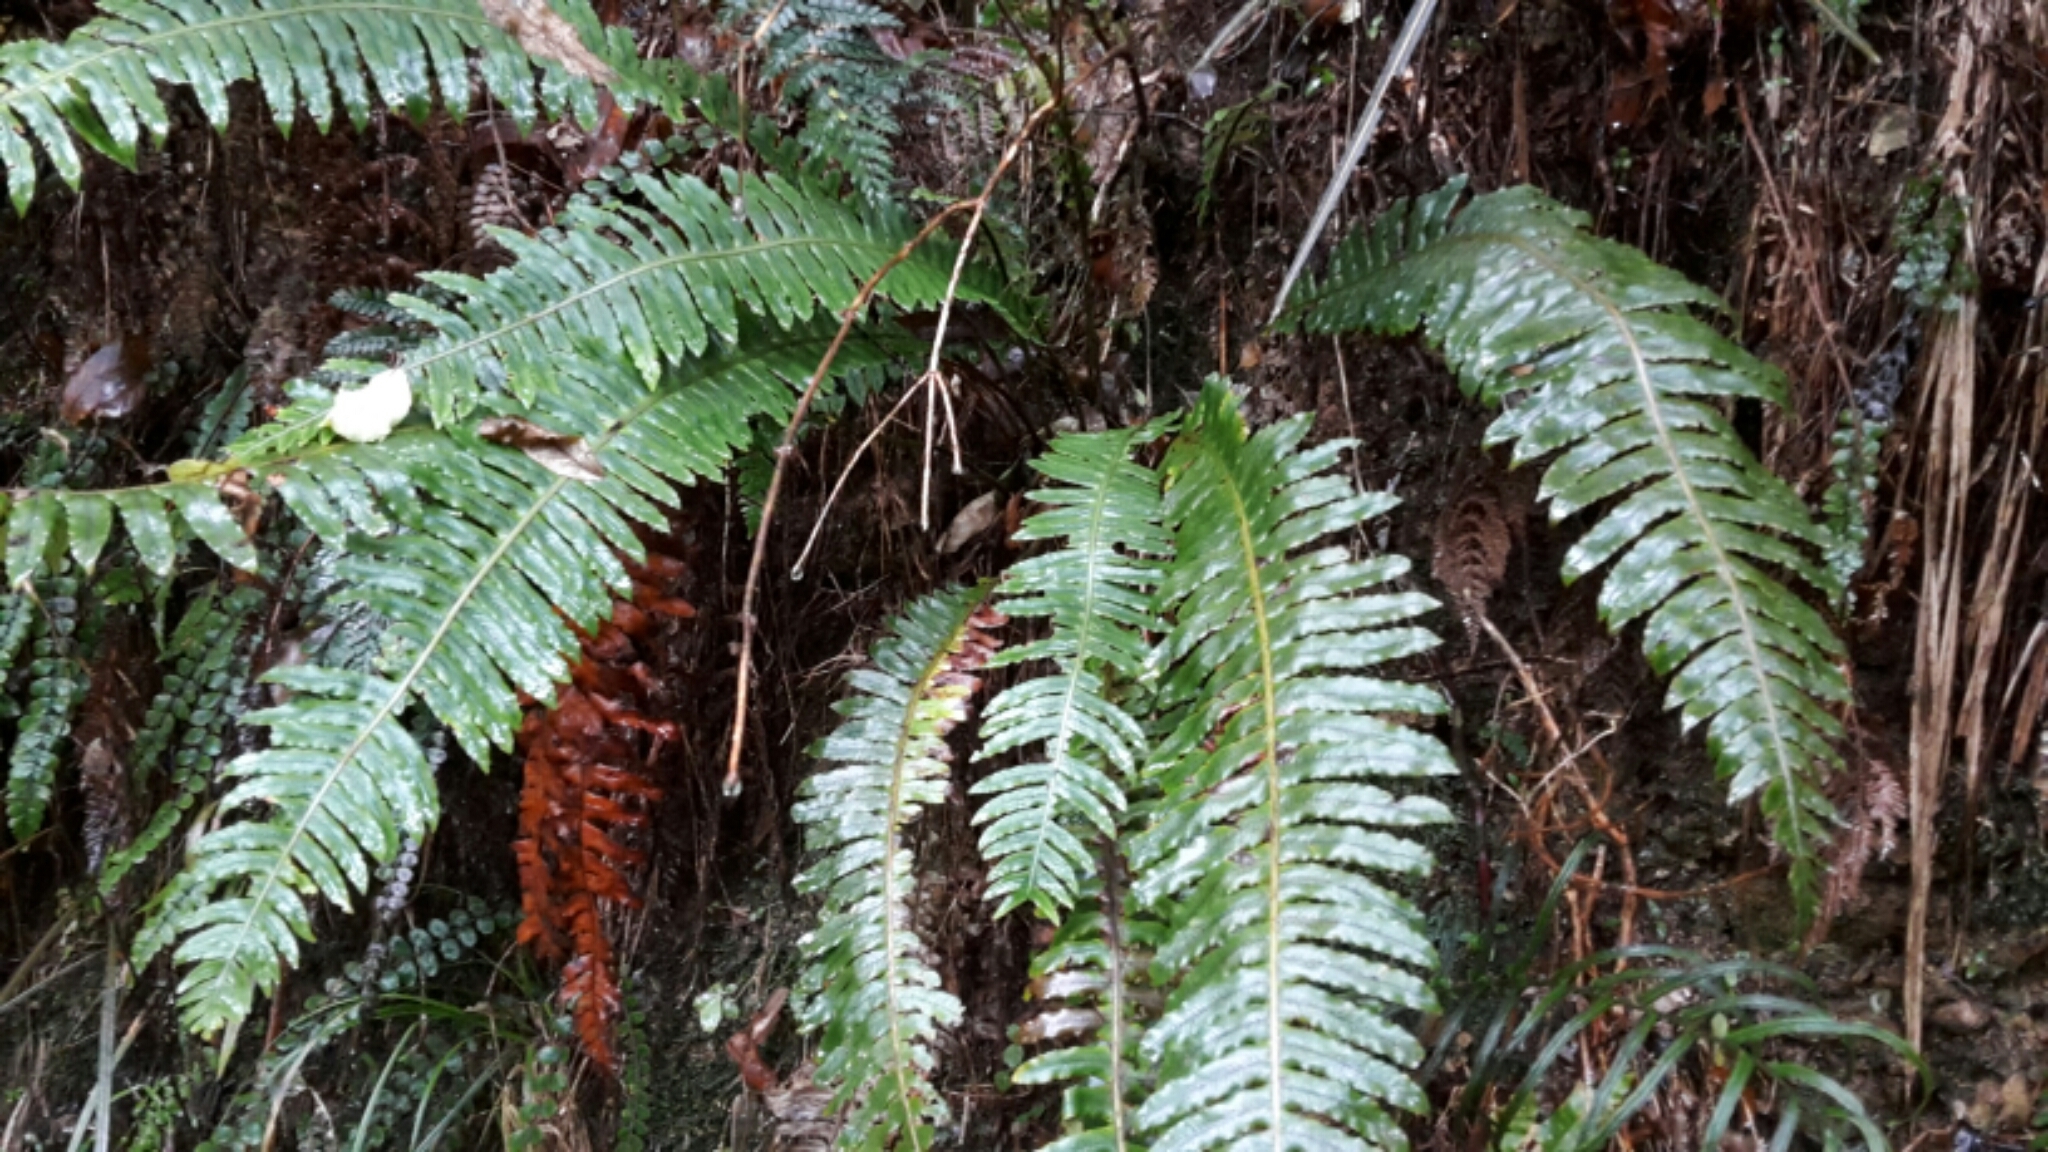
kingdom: Plantae
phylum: Tracheophyta
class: Polypodiopsida
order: Polypodiales
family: Blechnaceae
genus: Lomaria
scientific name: Lomaria discolor
